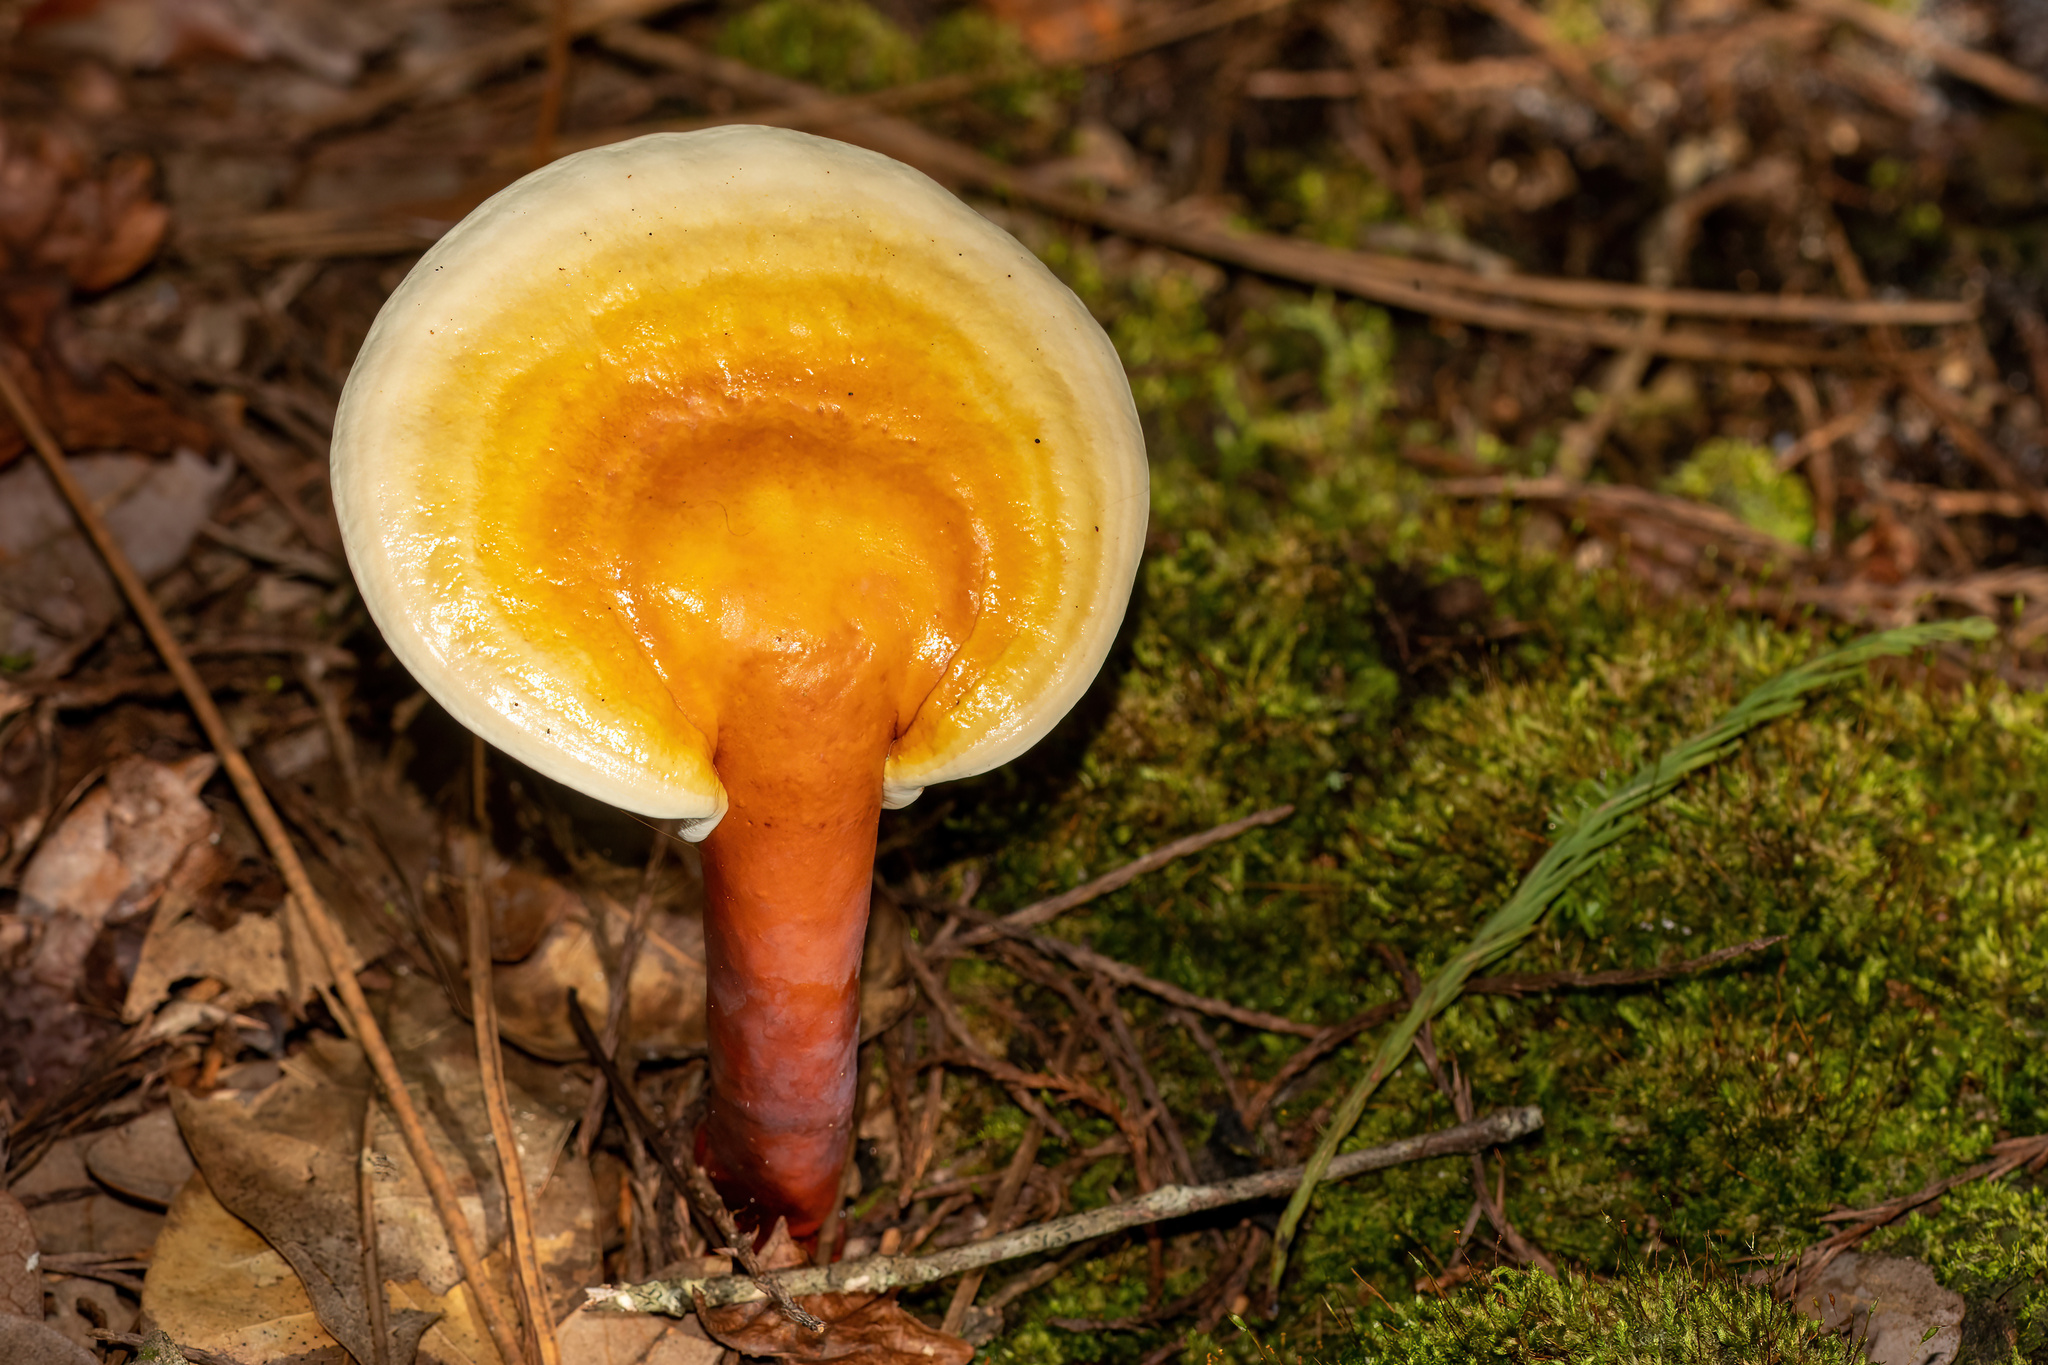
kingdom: Fungi
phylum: Basidiomycota
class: Agaricomycetes
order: Polyporales
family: Polyporaceae
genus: Ganoderma
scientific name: Ganoderma curtisii
